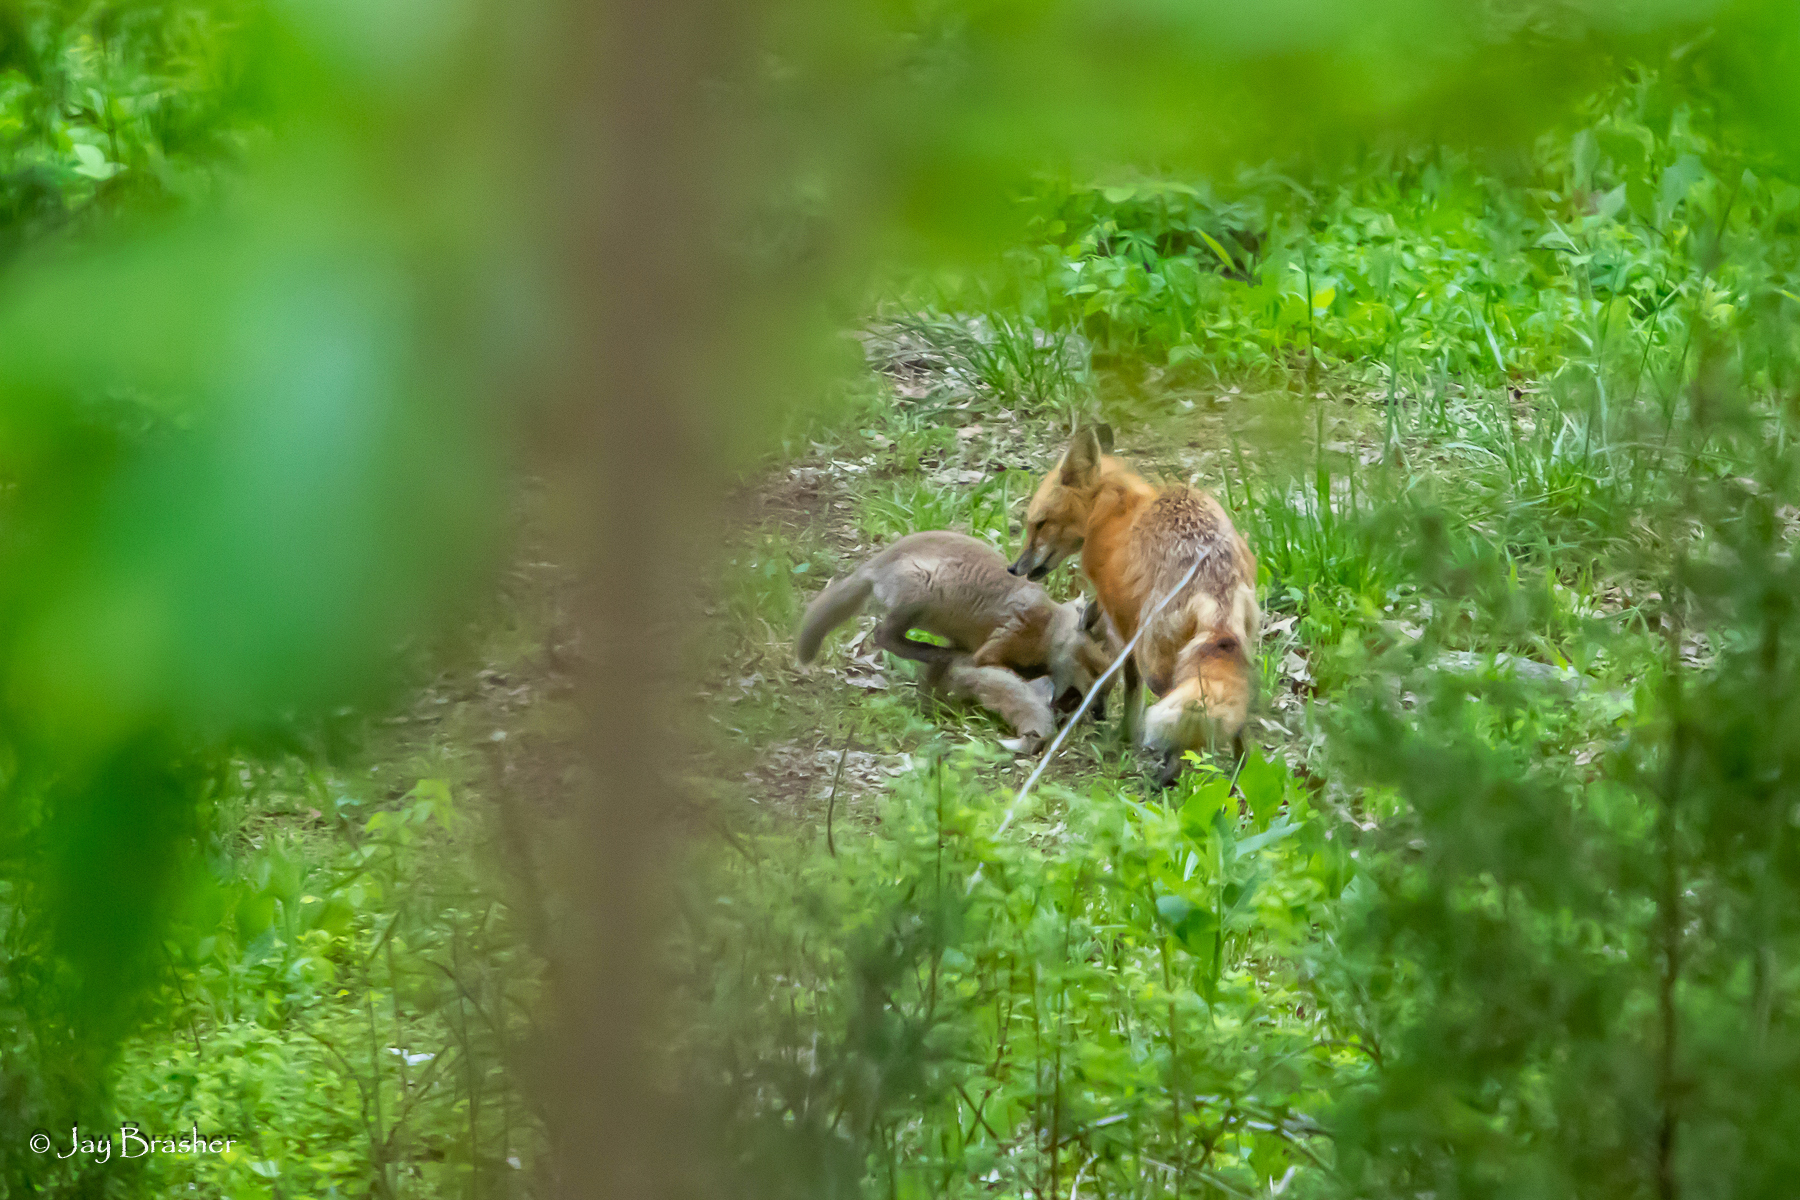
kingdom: Animalia
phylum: Chordata
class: Mammalia
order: Carnivora
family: Canidae
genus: Vulpes
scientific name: Vulpes vulpes
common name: Red fox
